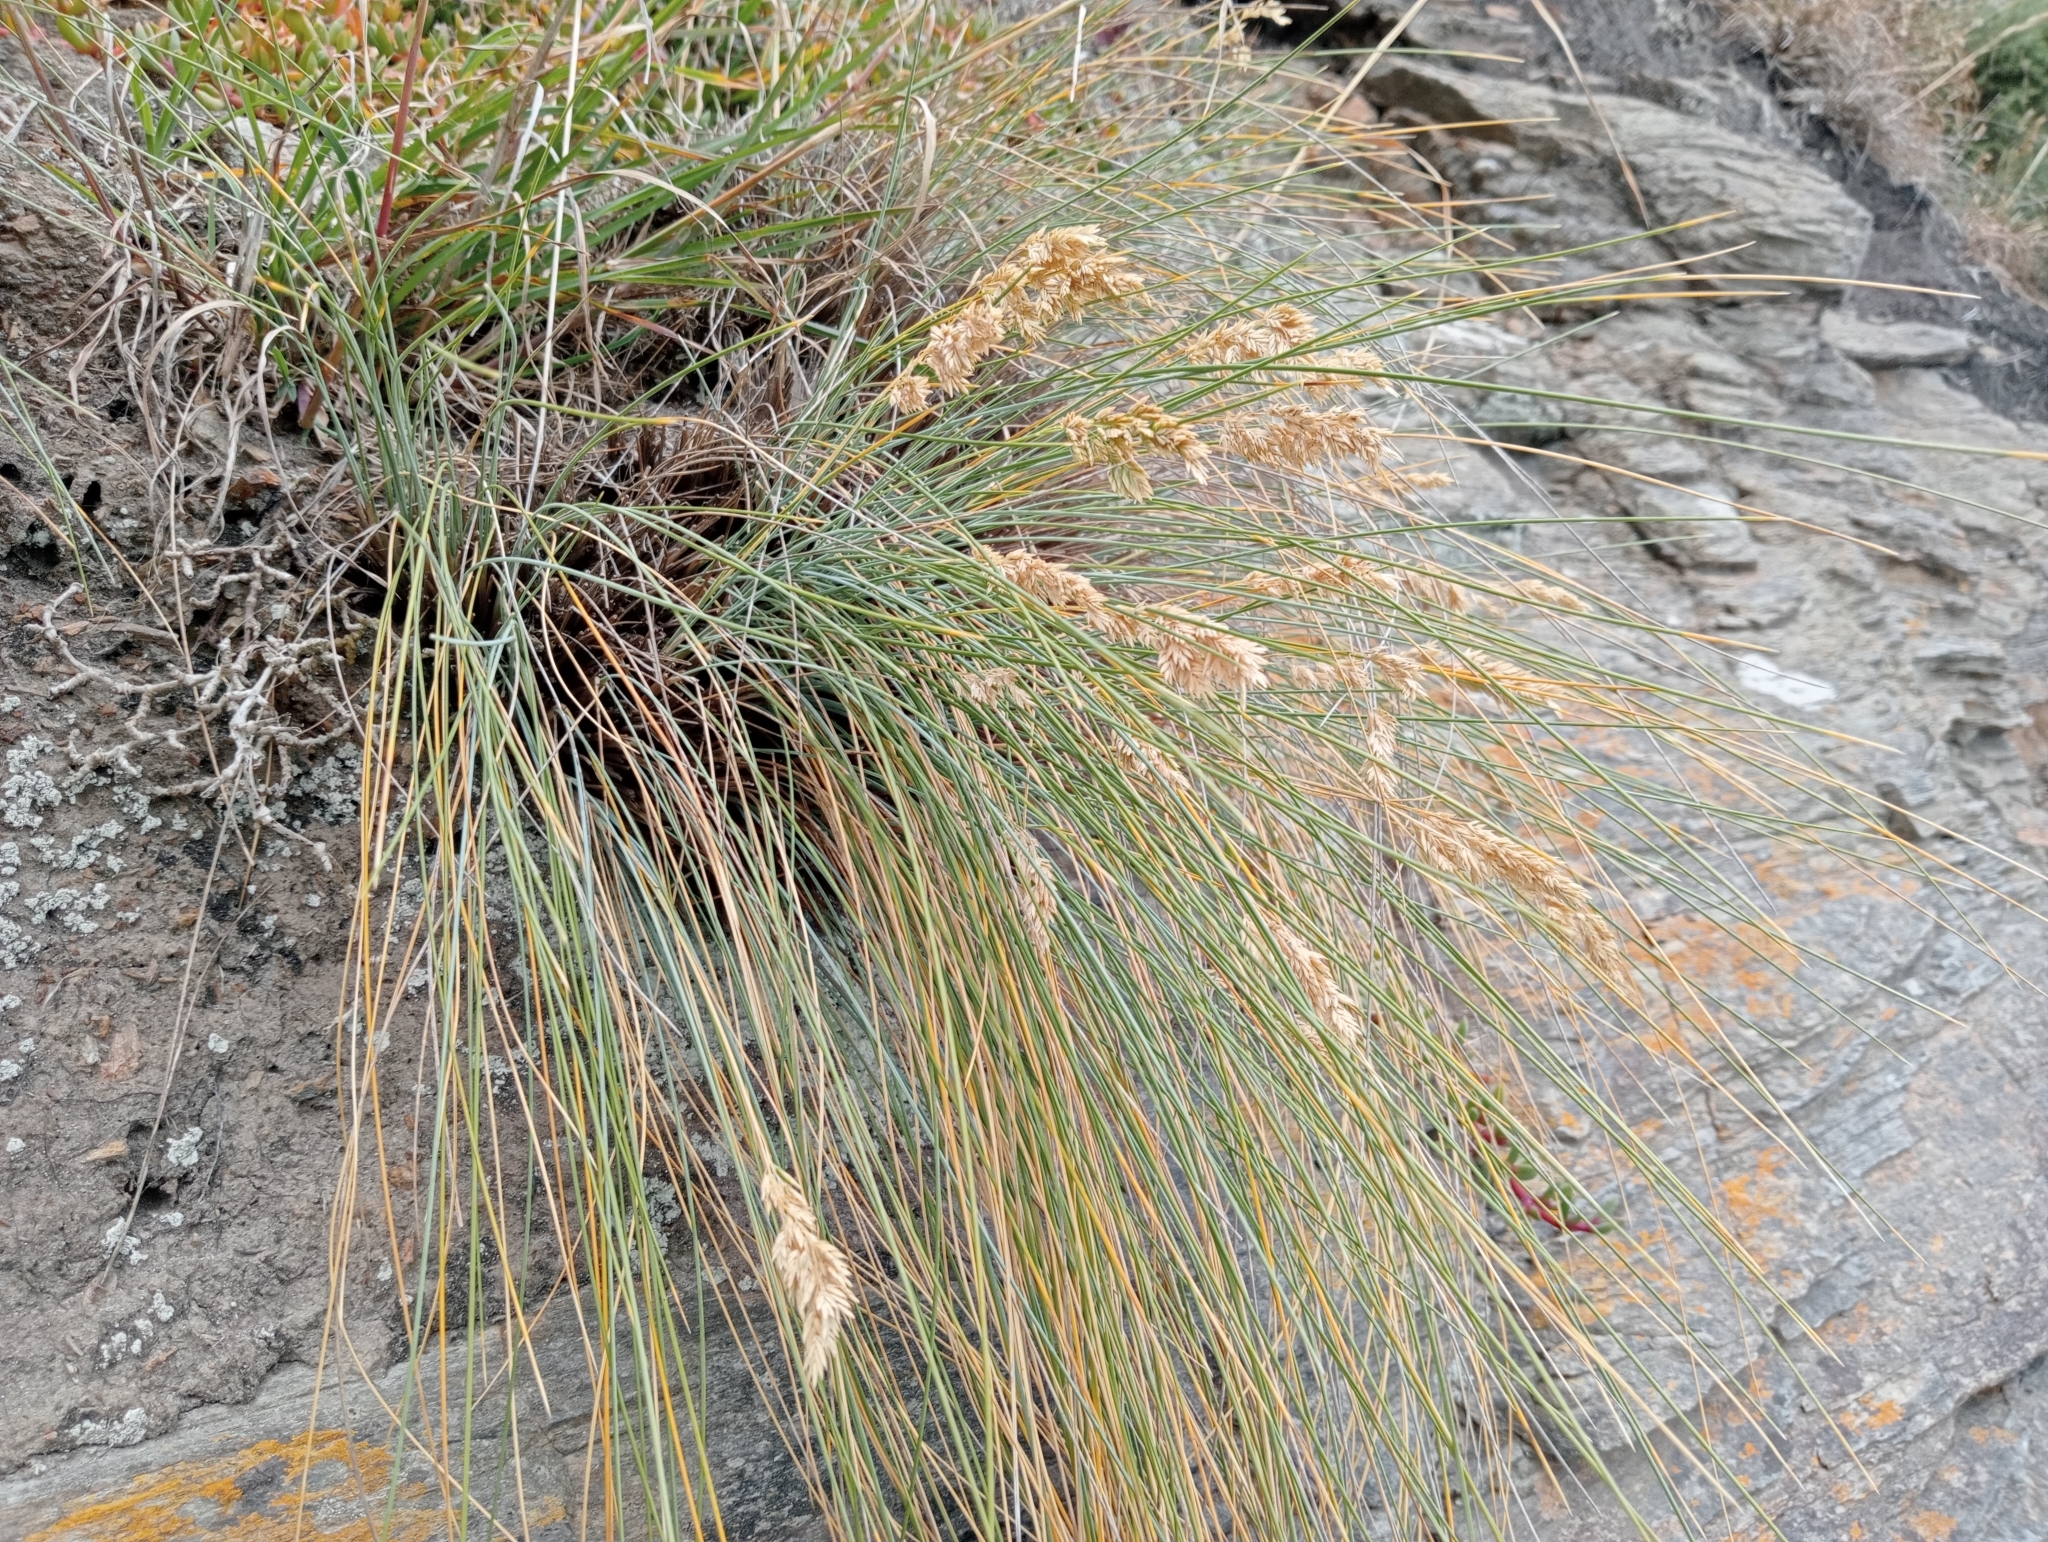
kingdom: Plantae
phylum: Tracheophyta
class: Liliopsida
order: Poales
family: Poaceae
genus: Poa
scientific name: Poa astonii
